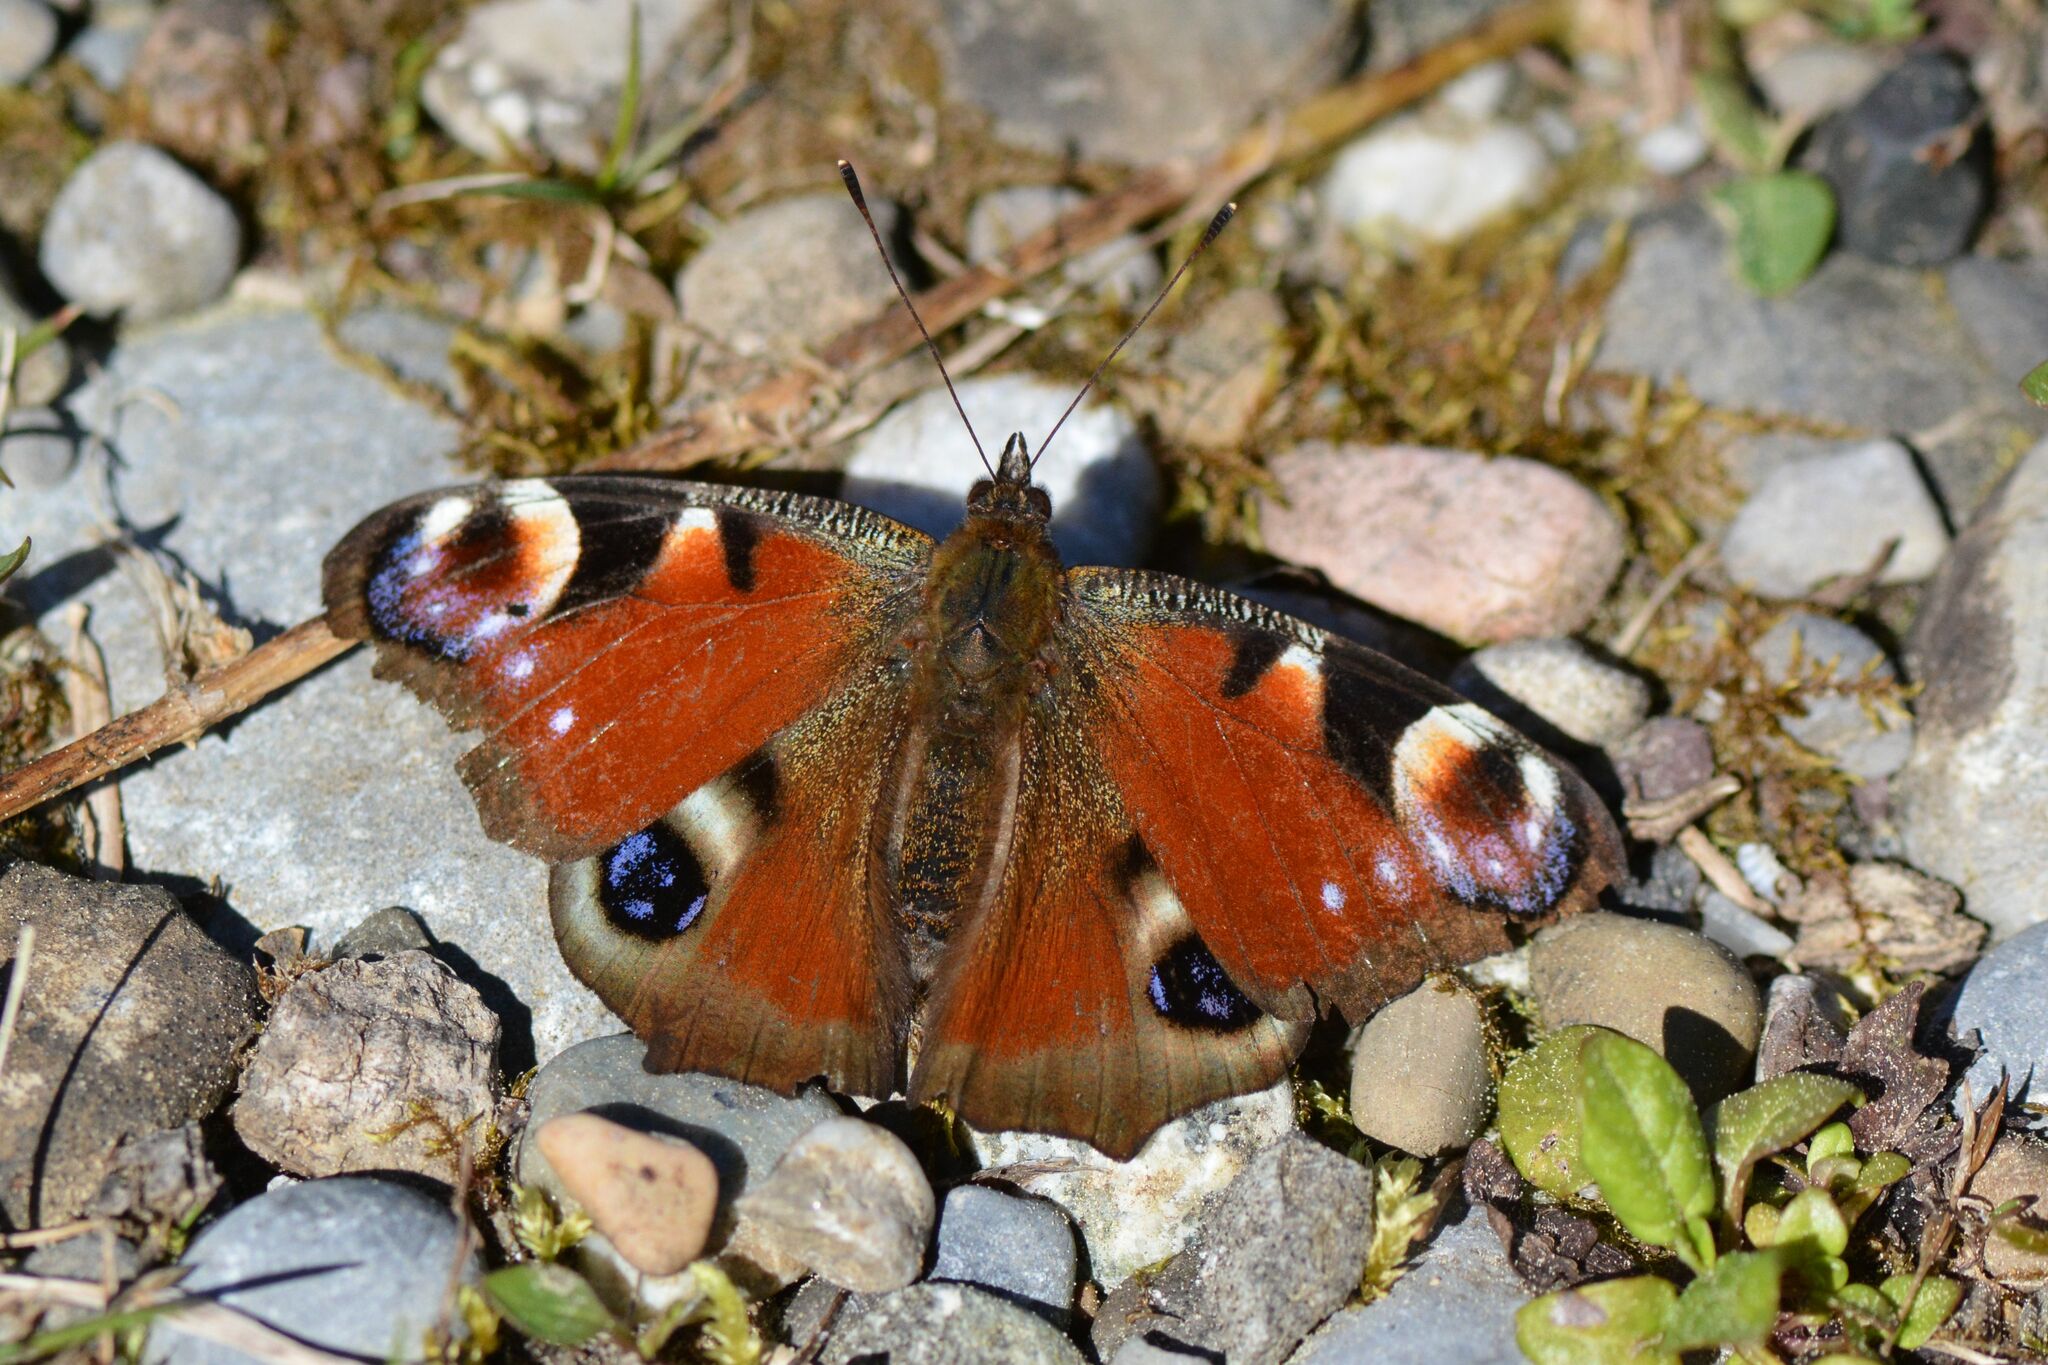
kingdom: Animalia
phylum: Arthropoda
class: Insecta
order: Lepidoptera
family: Nymphalidae
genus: Aglais
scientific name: Aglais io
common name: Peacock
